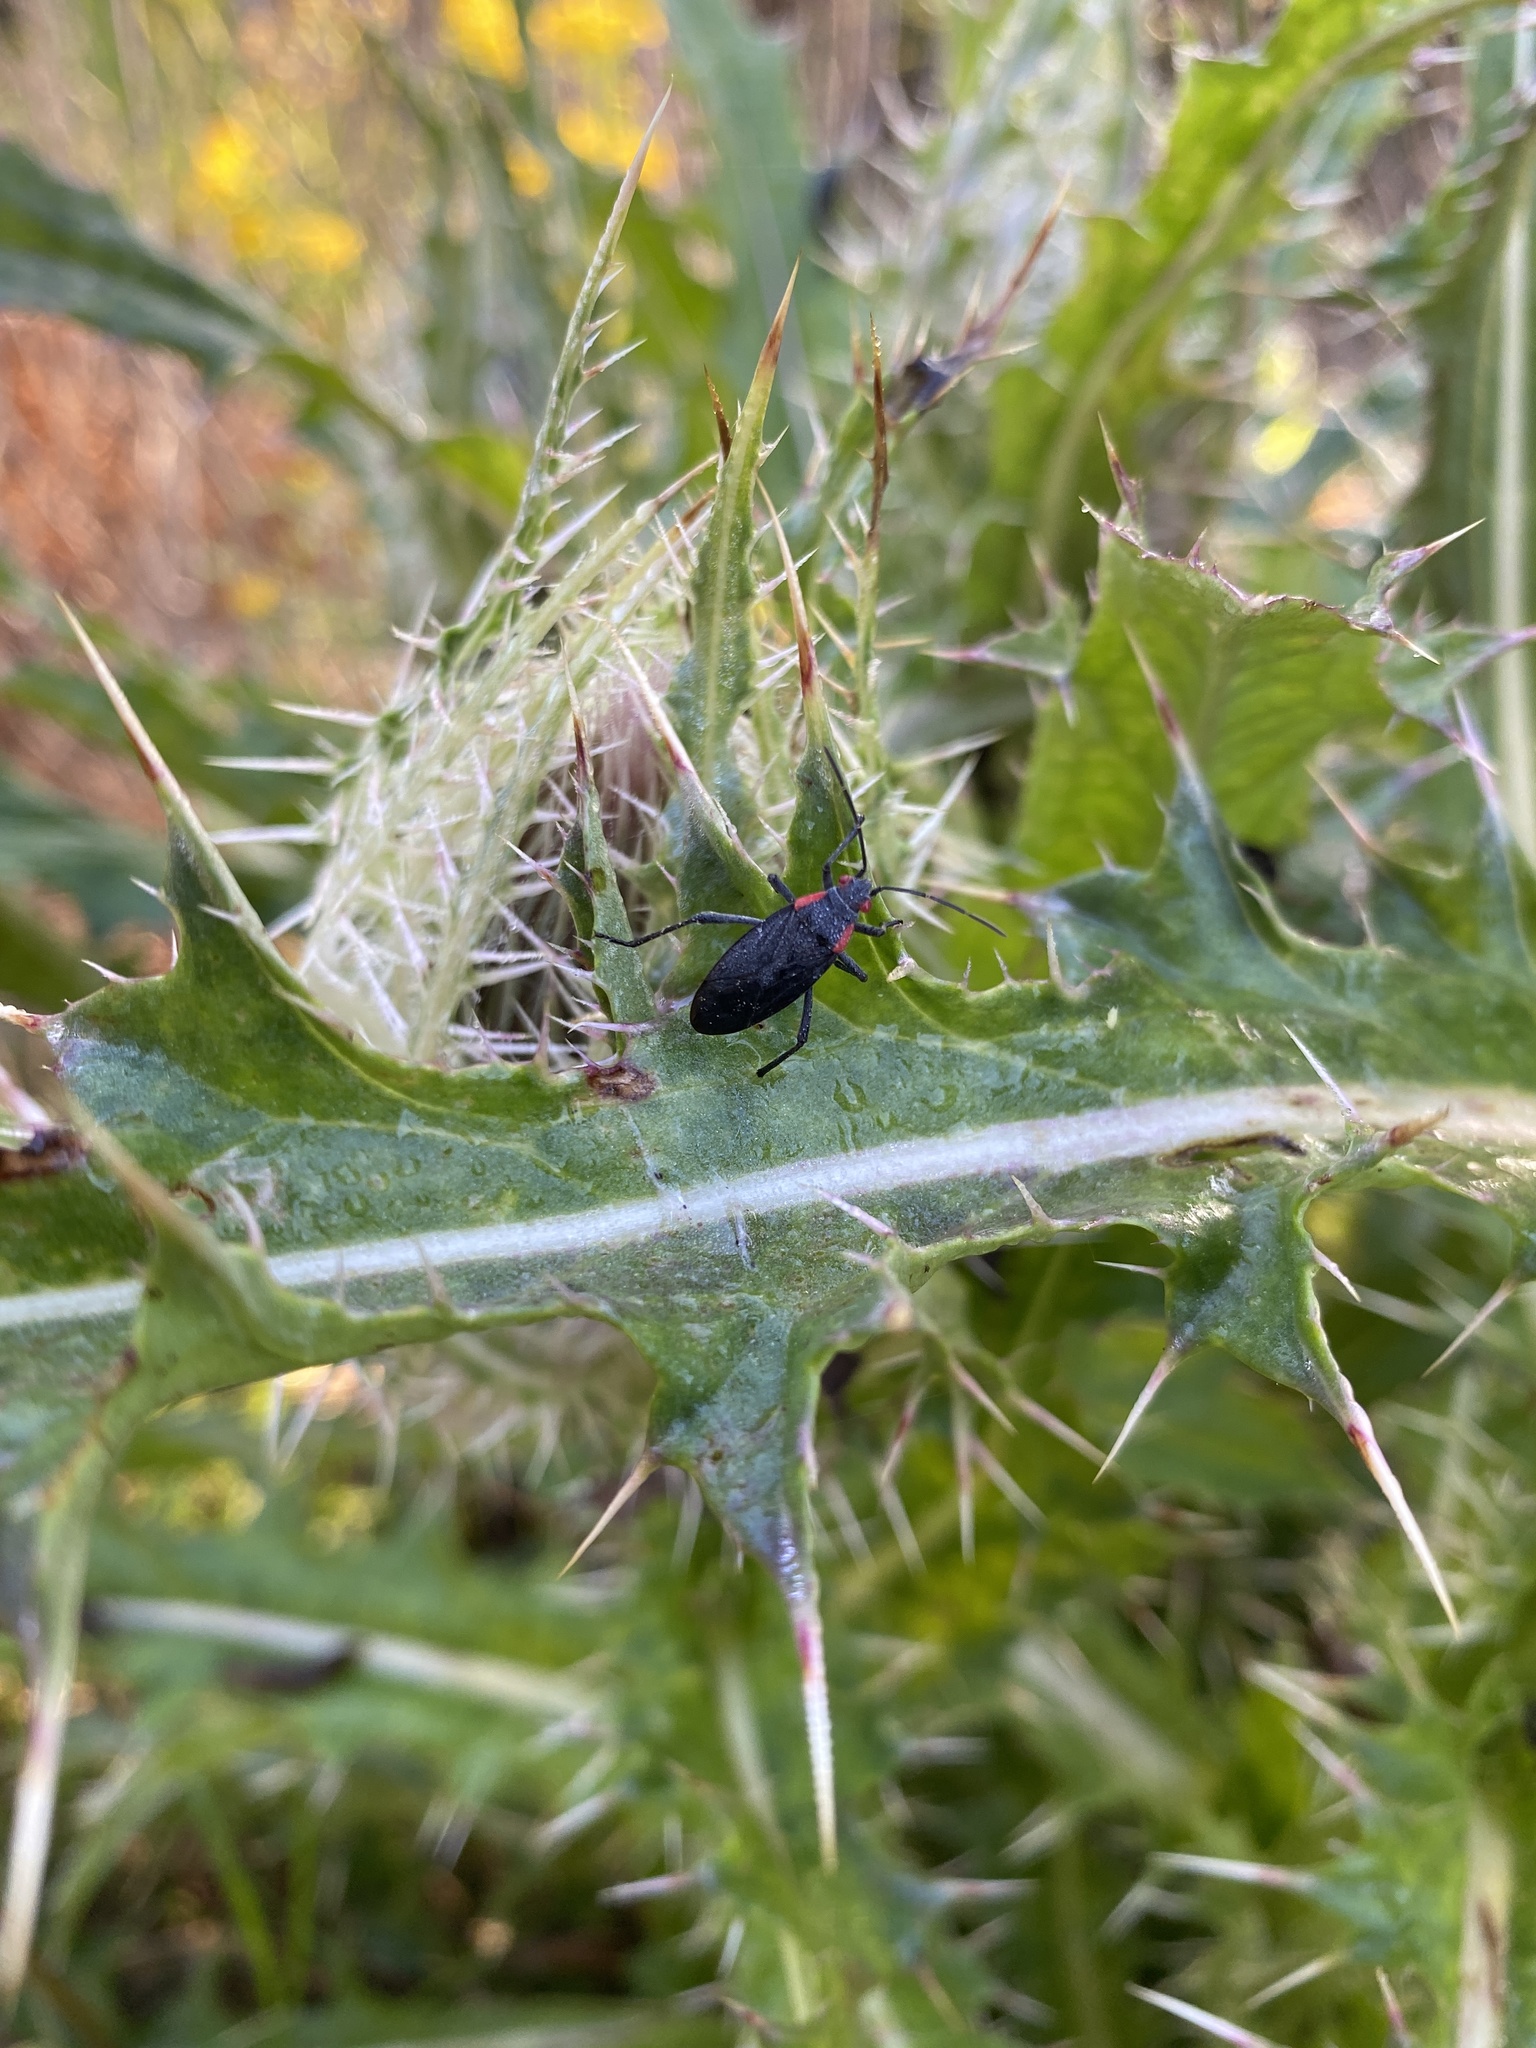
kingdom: Animalia
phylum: Arthropoda
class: Insecta
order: Hemiptera
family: Rhopalidae
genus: Jadera
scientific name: Jadera haematoloma
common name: Red-shouldered bug
